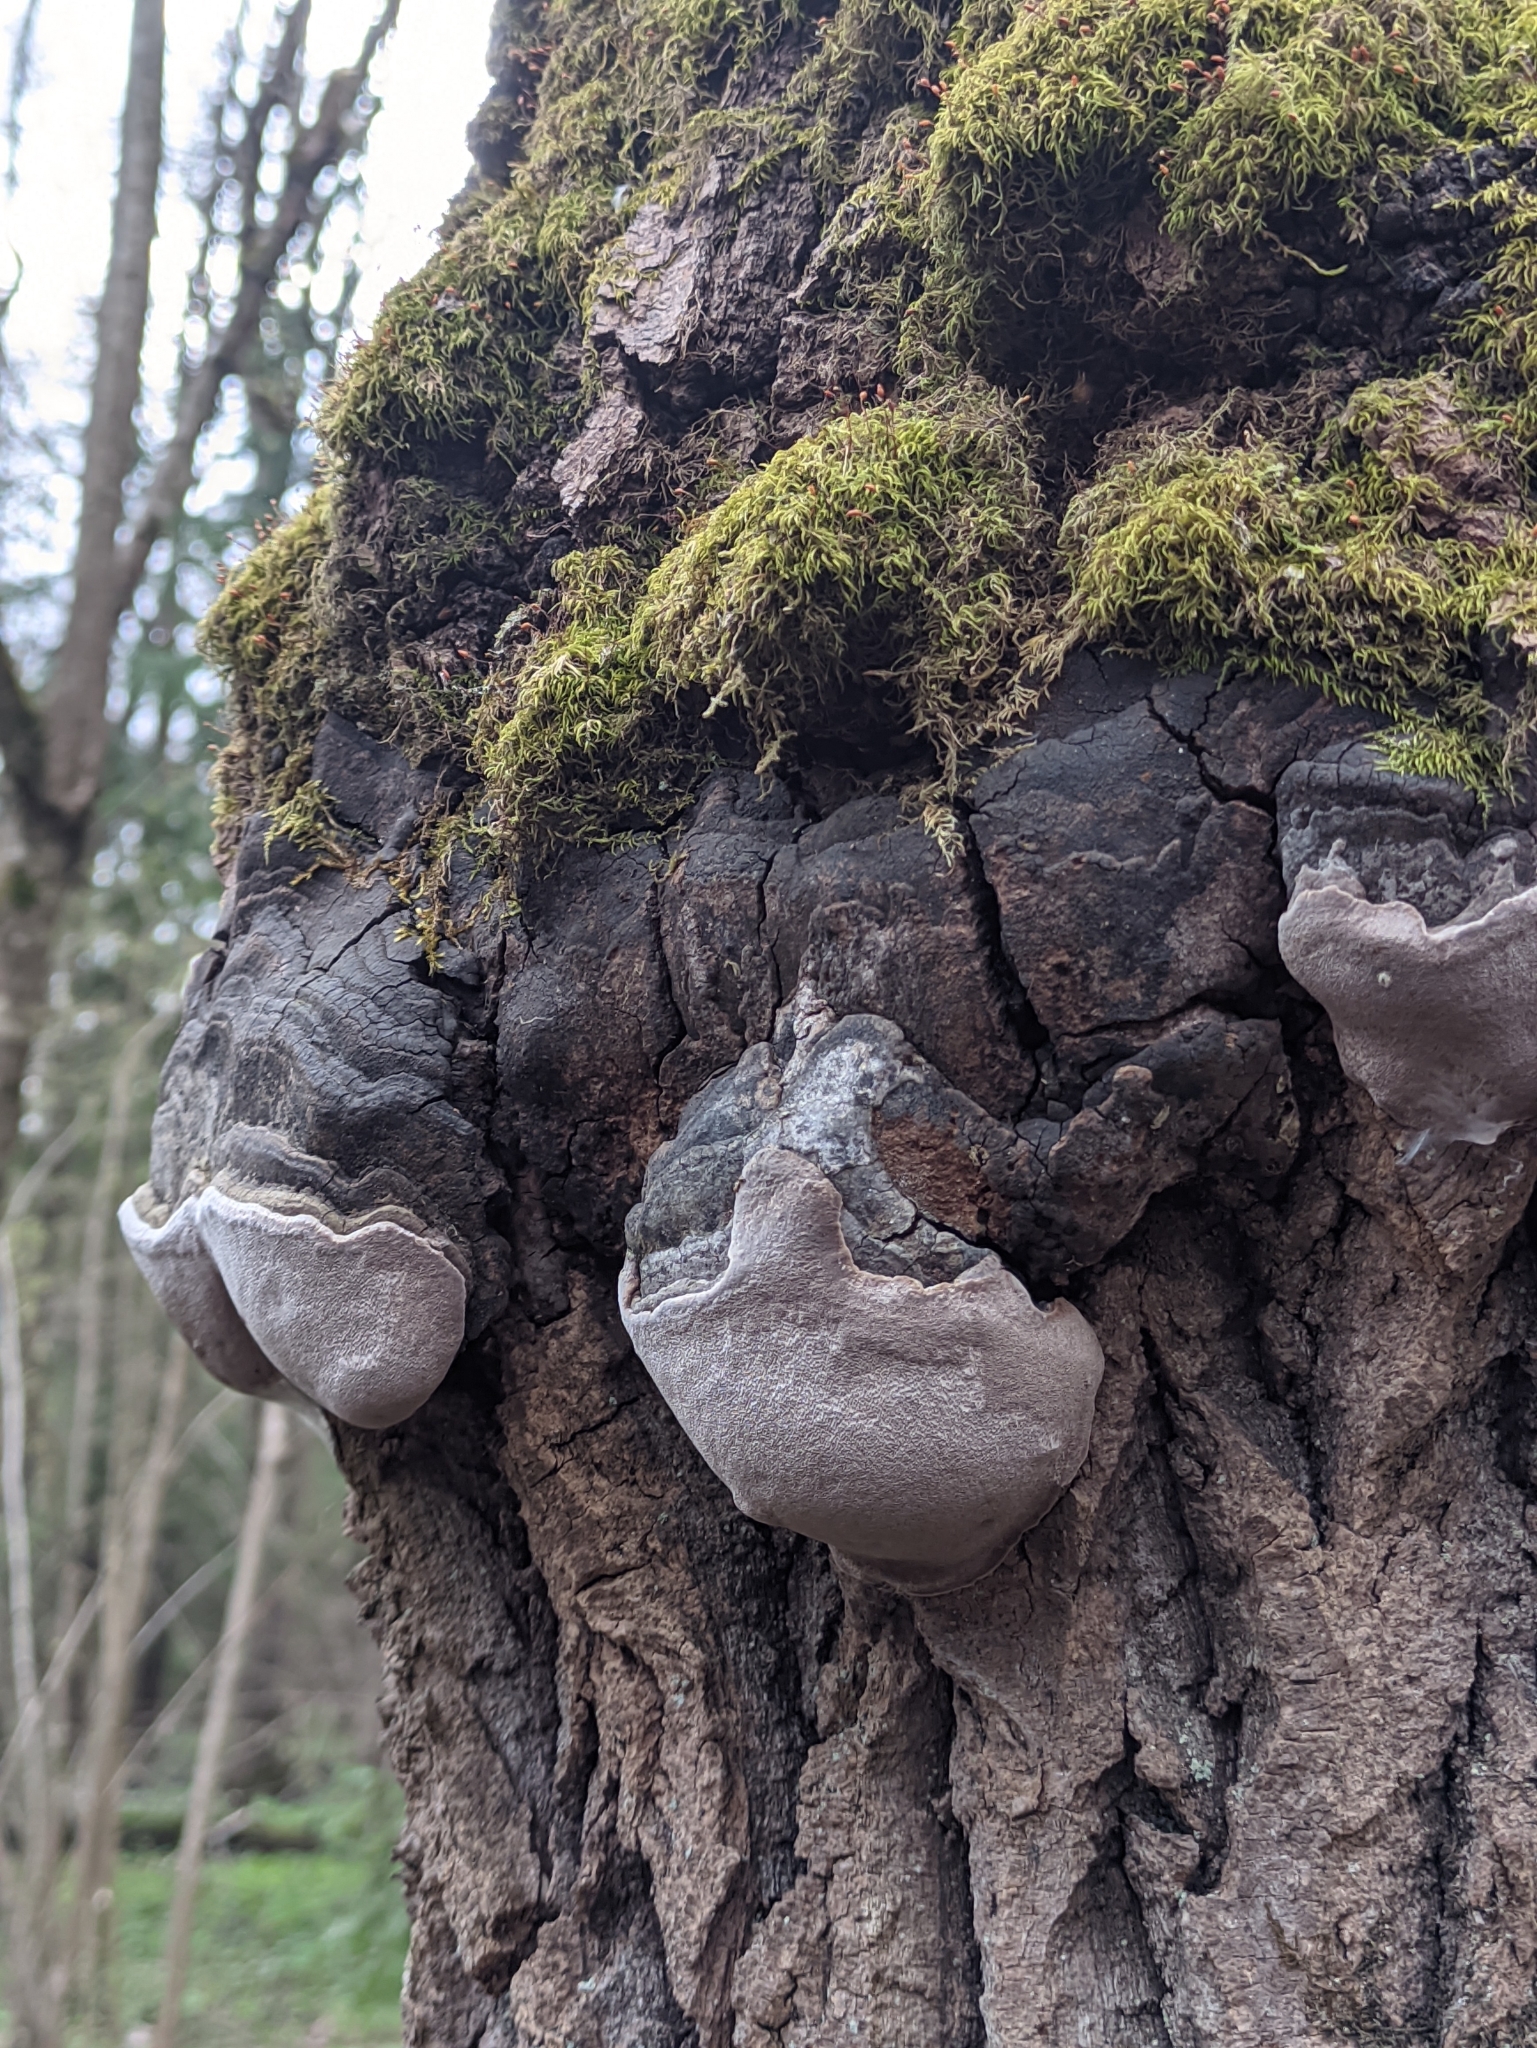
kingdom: Fungi
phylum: Basidiomycota
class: Agaricomycetes
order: Hymenochaetales
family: Hymenochaetaceae
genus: Phellinus
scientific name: Phellinus tremulae
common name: Aspen bracket
